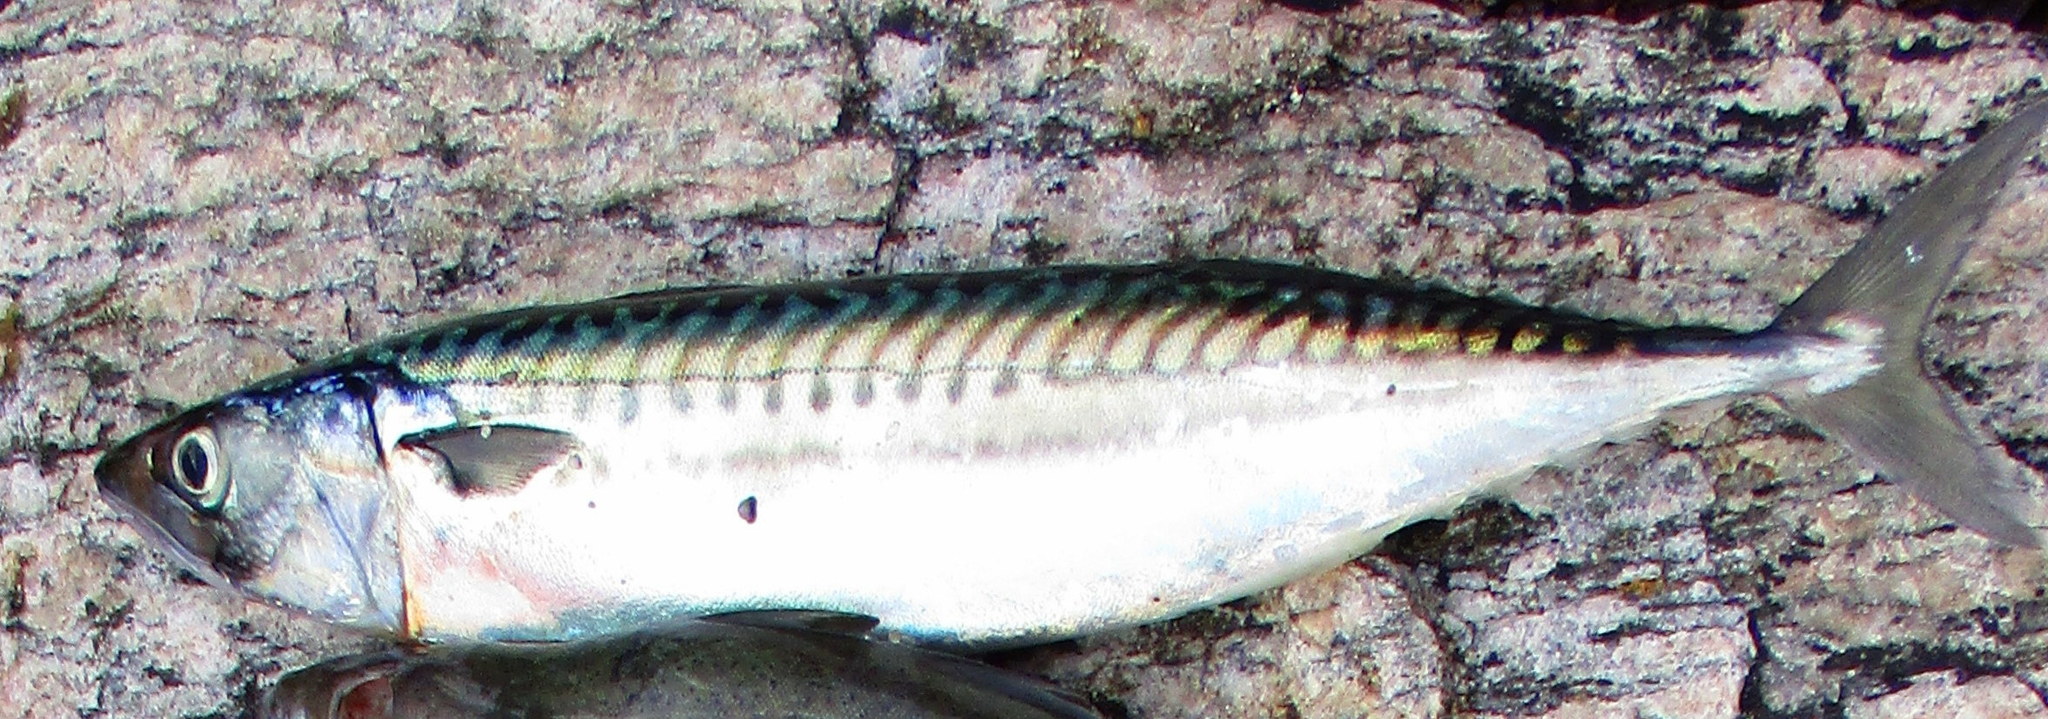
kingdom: Animalia
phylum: Chordata
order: Perciformes
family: Scombridae
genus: Scomber
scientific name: Scomber scombrus
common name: Mackerel
